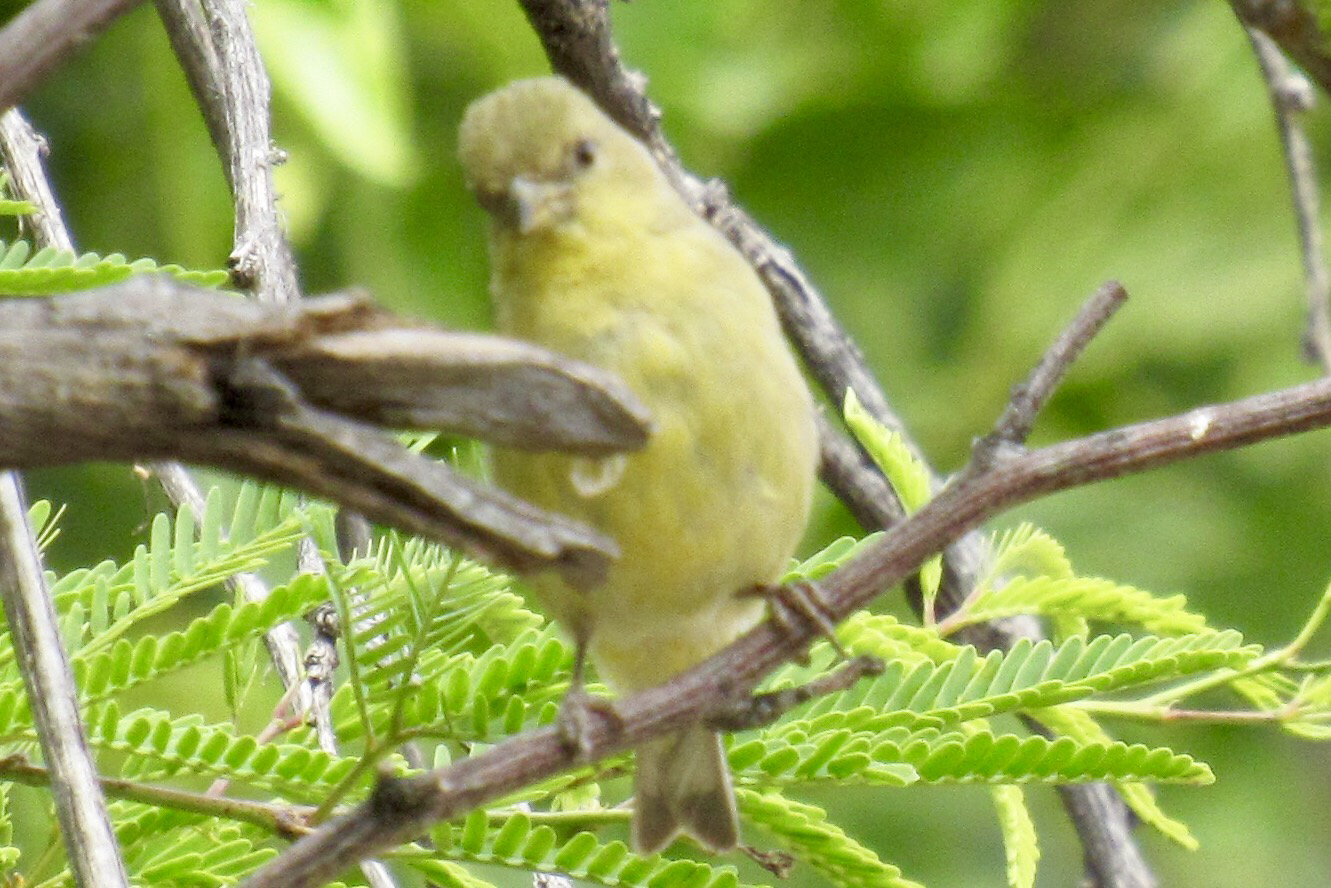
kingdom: Animalia
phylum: Chordata
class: Aves
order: Passeriformes
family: Fringillidae
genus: Spinus
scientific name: Spinus psaltria
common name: Lesser goldfinch
